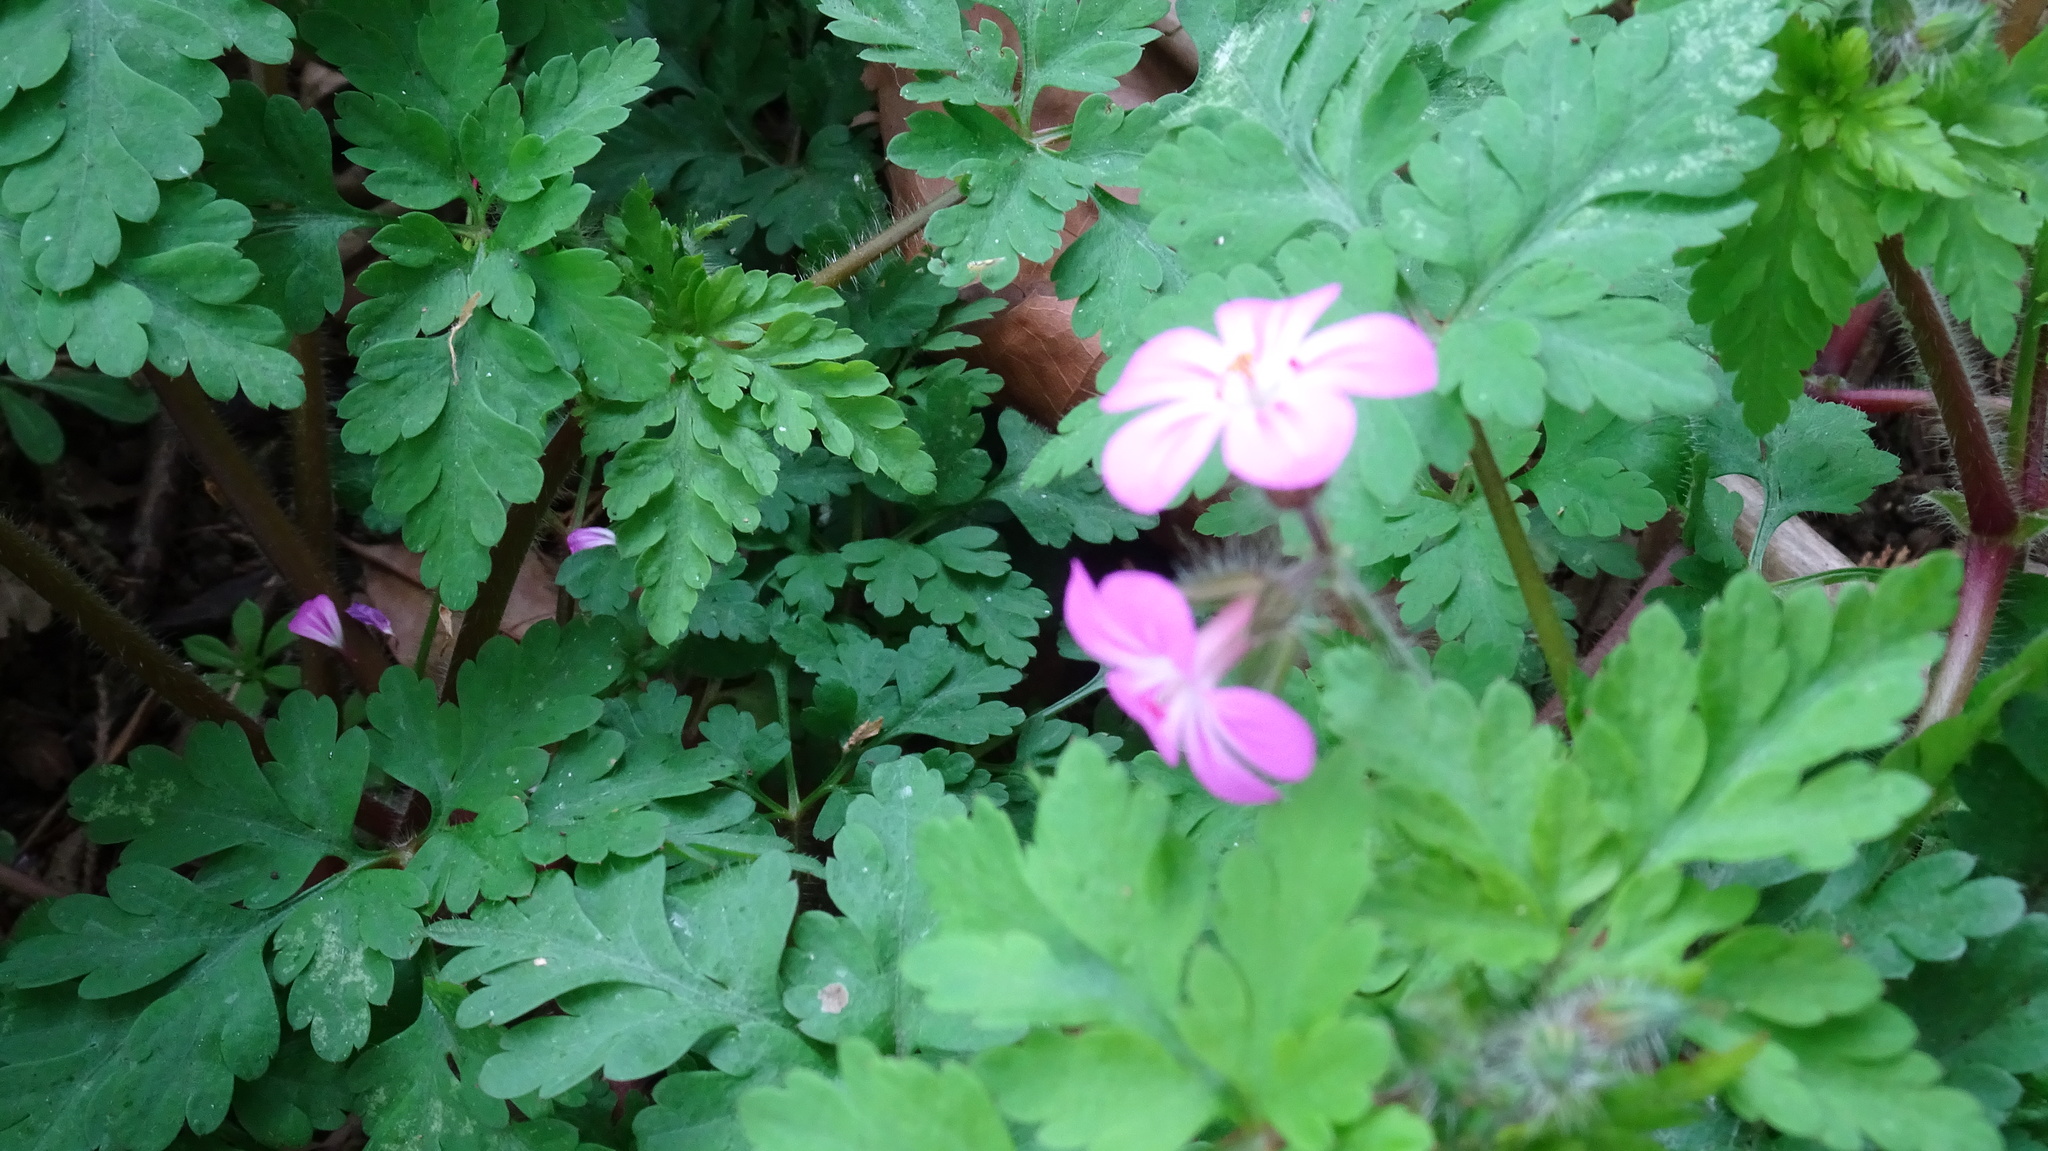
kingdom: Plantae
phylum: Tracheophyta
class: Magnoliopsida
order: Geraniales
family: Geraniaceae
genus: Geranium
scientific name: Geranium robertianum
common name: Herb-robert
